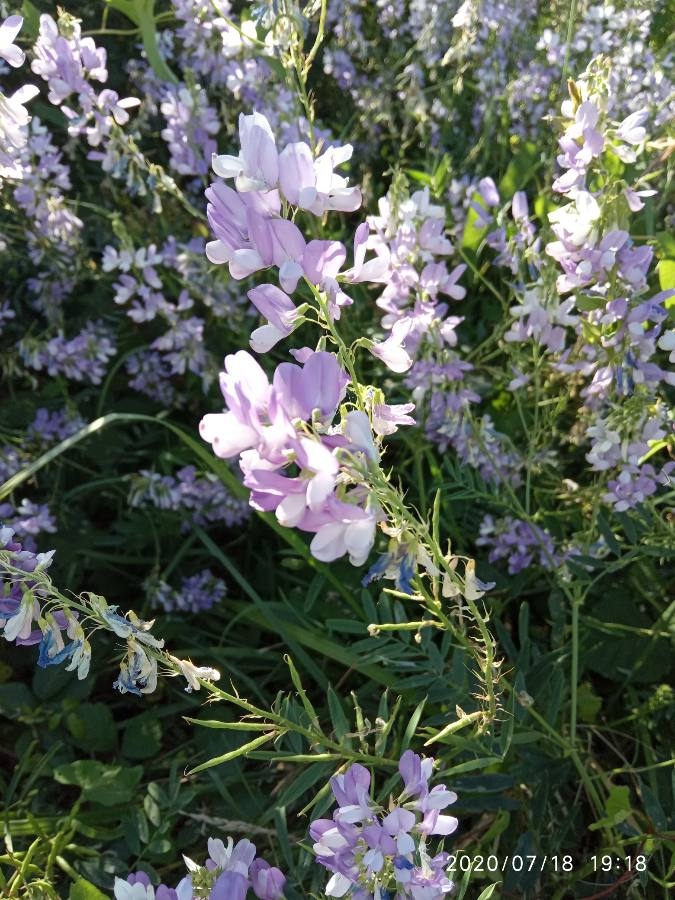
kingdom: Plantae
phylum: Tracheophyta
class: Magnoliopsida
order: Fabales
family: Fabaceae
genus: Galega
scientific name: Galega officinalis
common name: Goat's-rue
